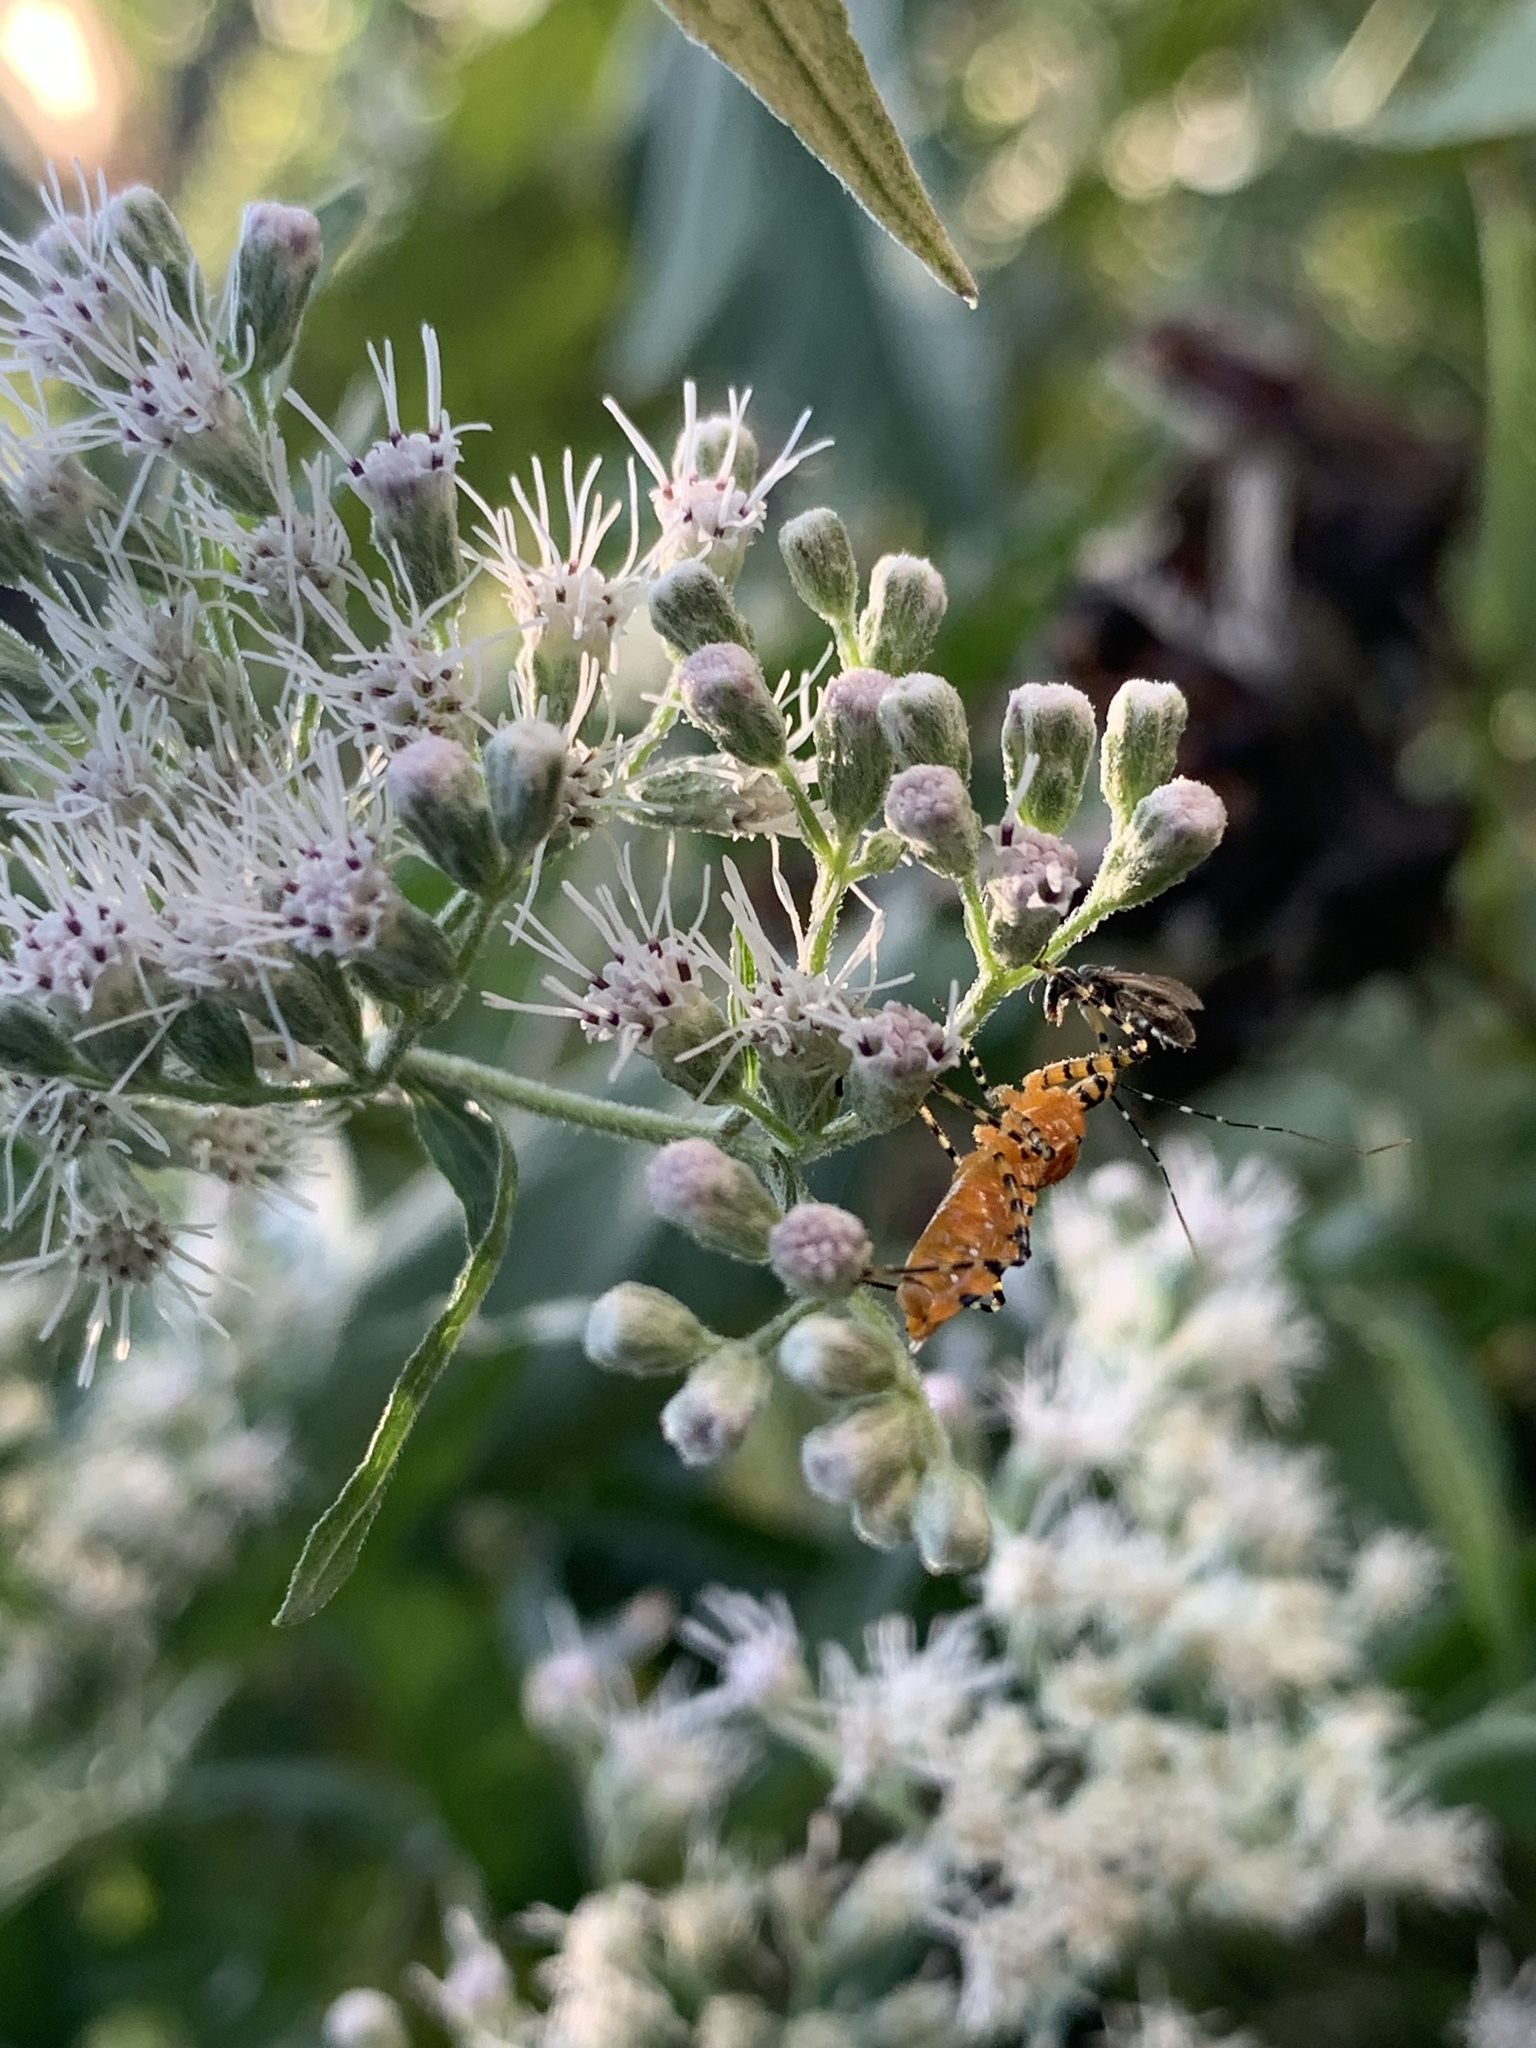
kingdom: Animalia
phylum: Arthropoda
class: Insecta
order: Hemiptera
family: Reduviidae
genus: Pselliopus
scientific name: Pselliopus barberi
